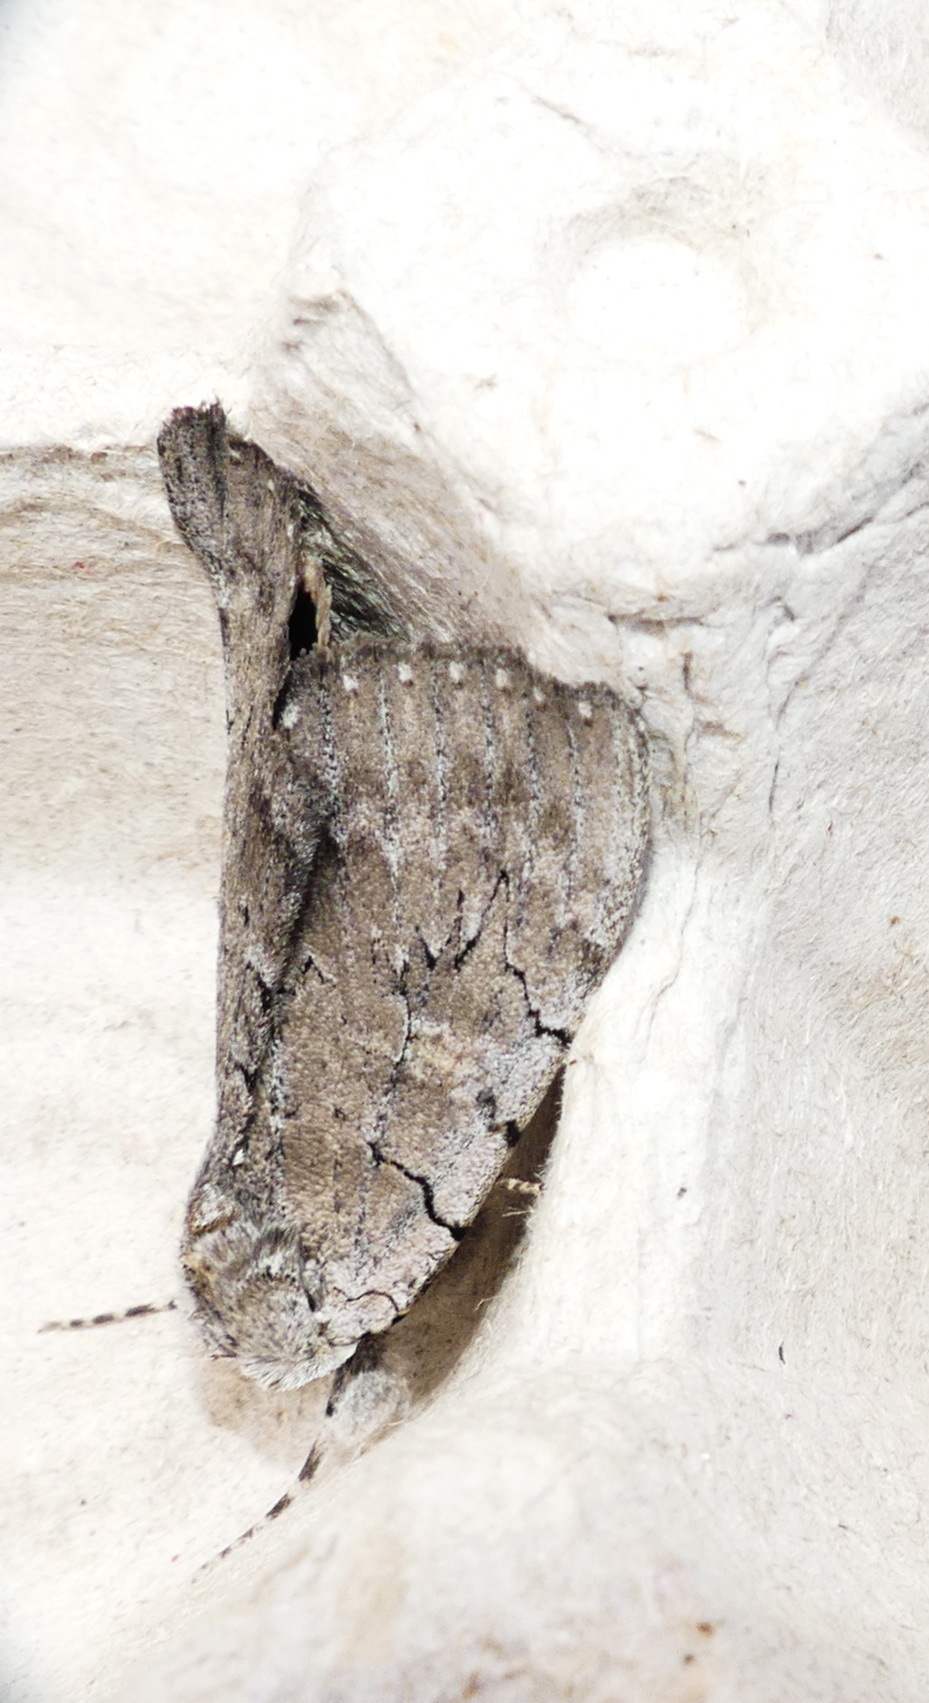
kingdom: Animalia
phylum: Arthropoda
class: Insecta
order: Lepidoptera
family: Erebidae
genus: Catocala
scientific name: Catocala concumbens
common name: Pink underwing
